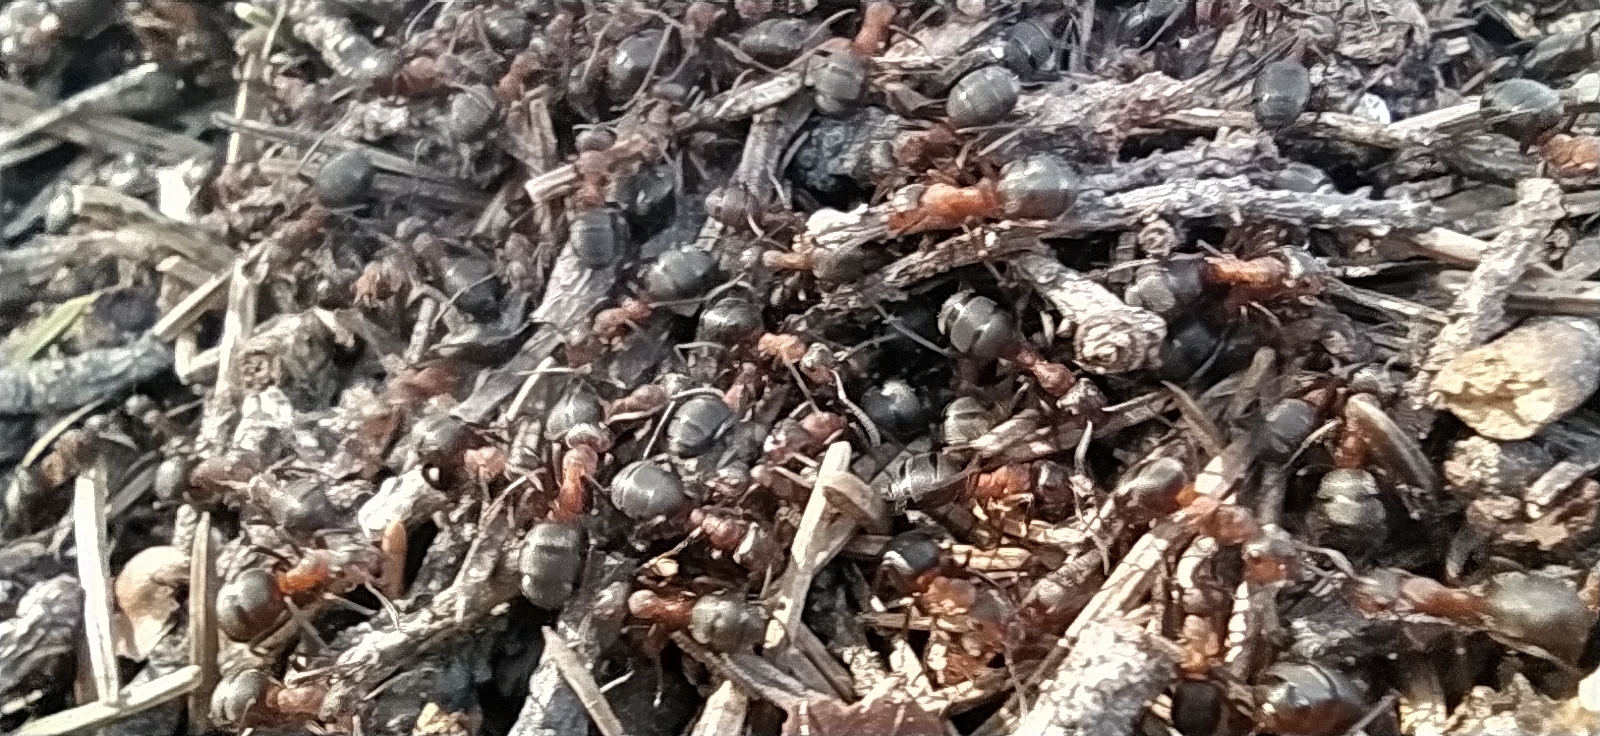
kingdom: Animalia
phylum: Arthropoda
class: Insecta
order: Hymenoptera
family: Formicidae
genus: Formica
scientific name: Formica rufa
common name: Red wood ant
